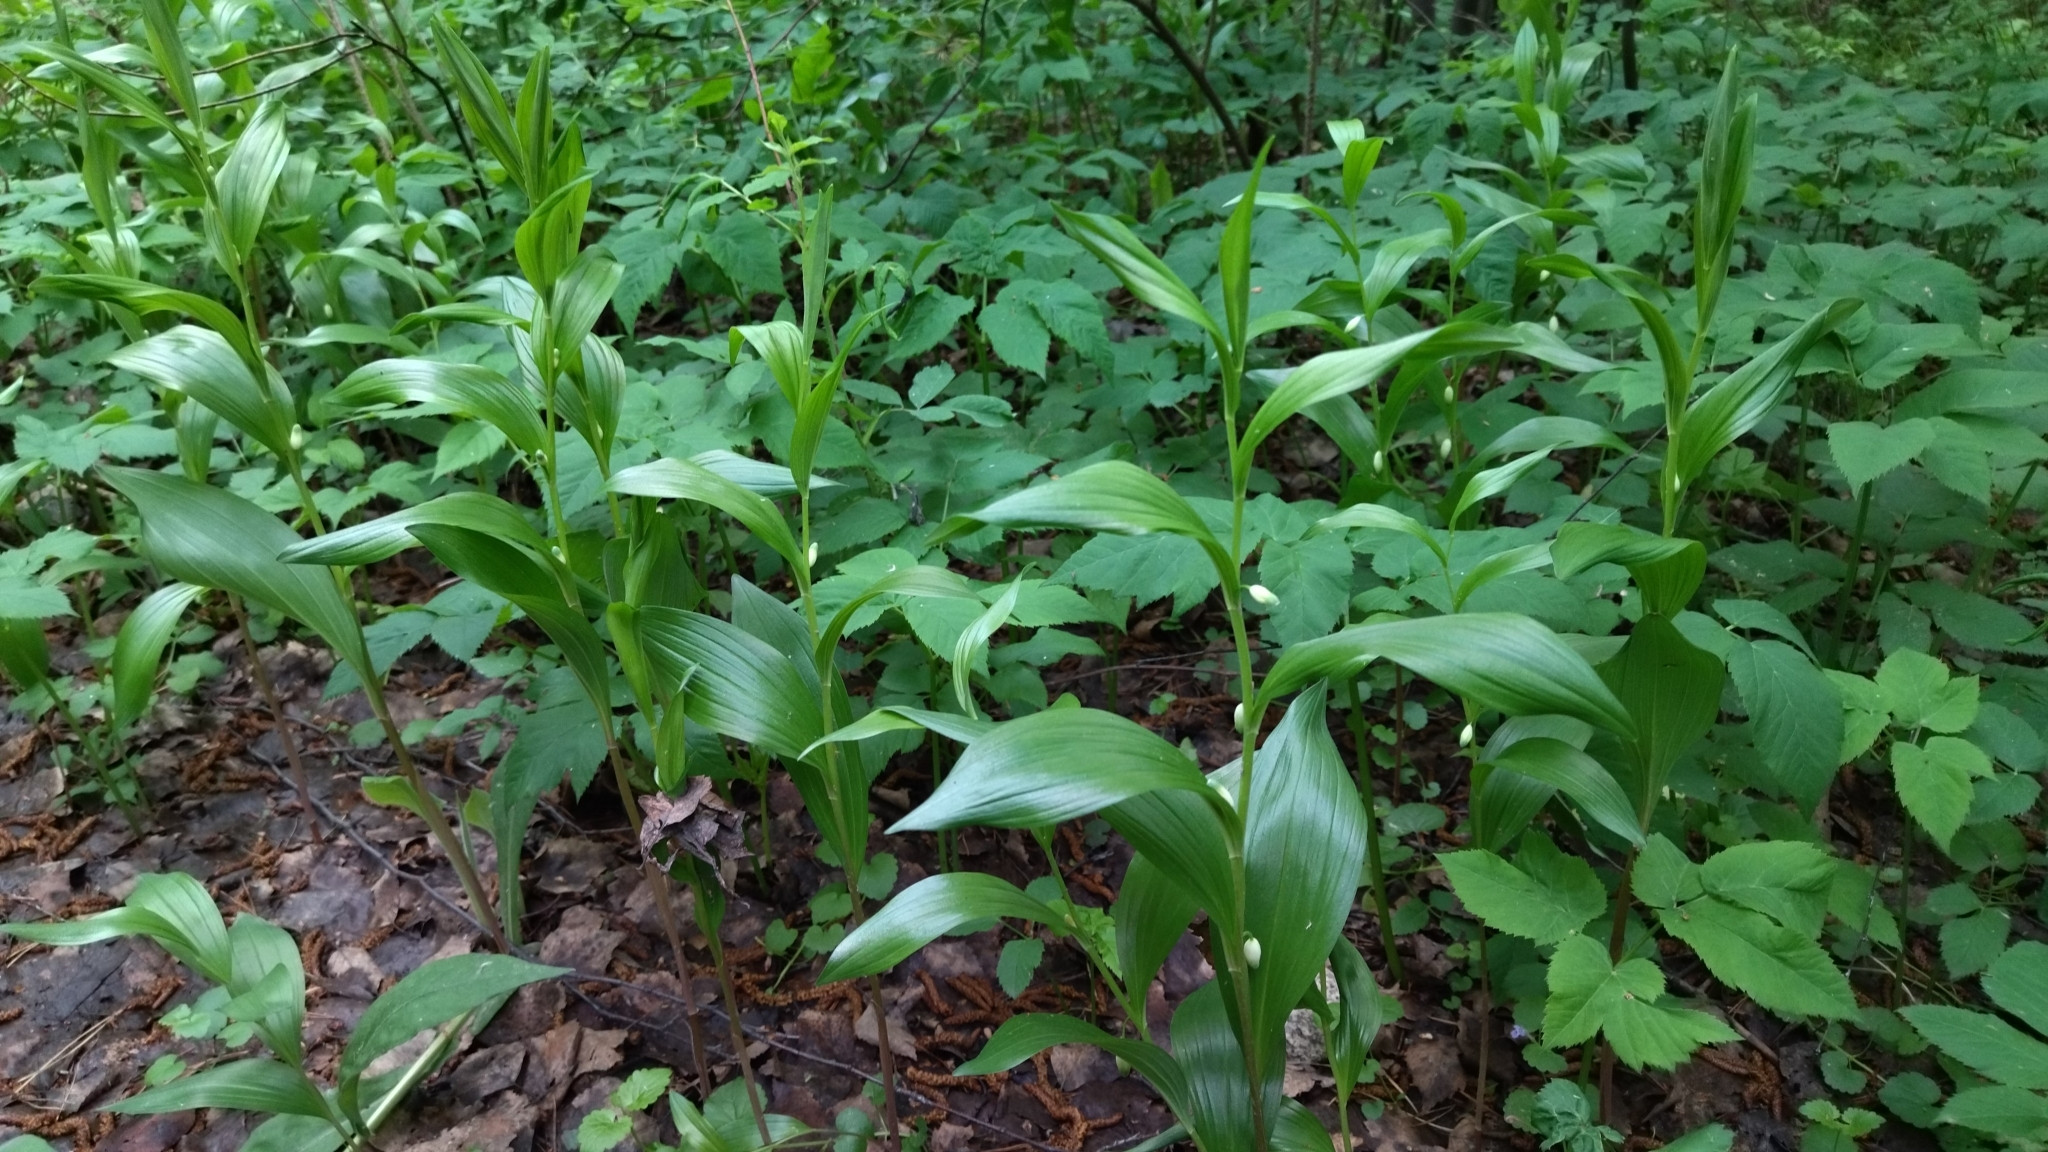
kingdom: Plantae
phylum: Tracheophyta
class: Liliopsida
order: Asparagales
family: Asparagaceae
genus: Polygonatum
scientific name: Polygonatum humile
